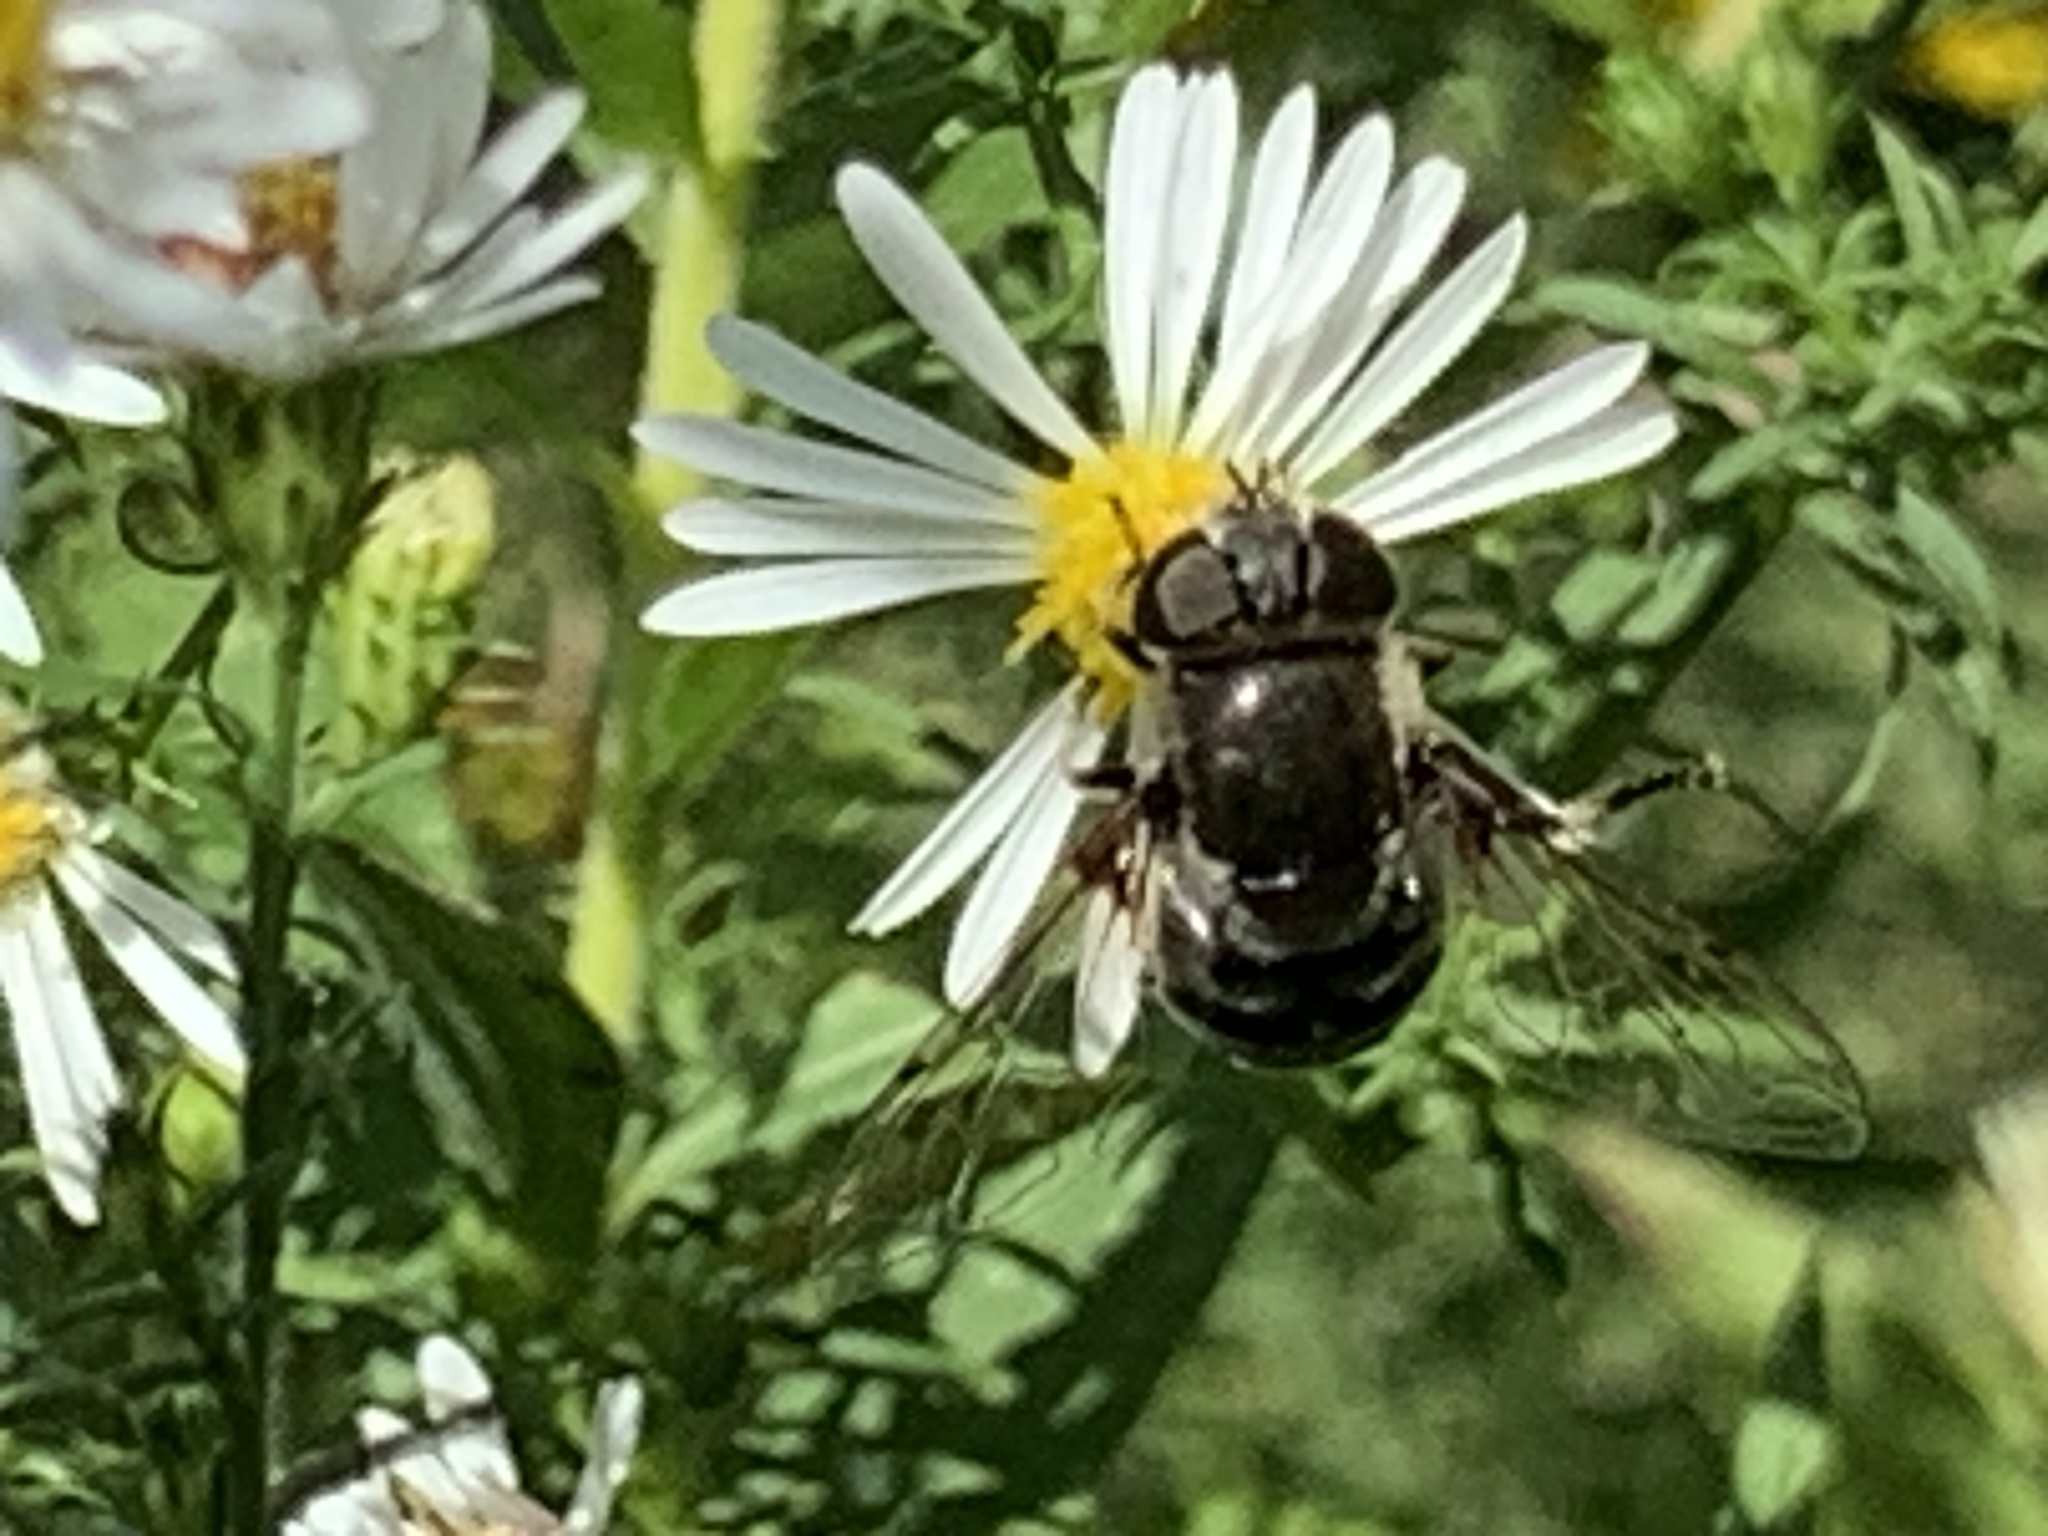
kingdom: Animalia
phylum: Arthropoda
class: Insecta
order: Diptera
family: Syrphidae
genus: Eristalis
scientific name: Eristalis dimidiata
